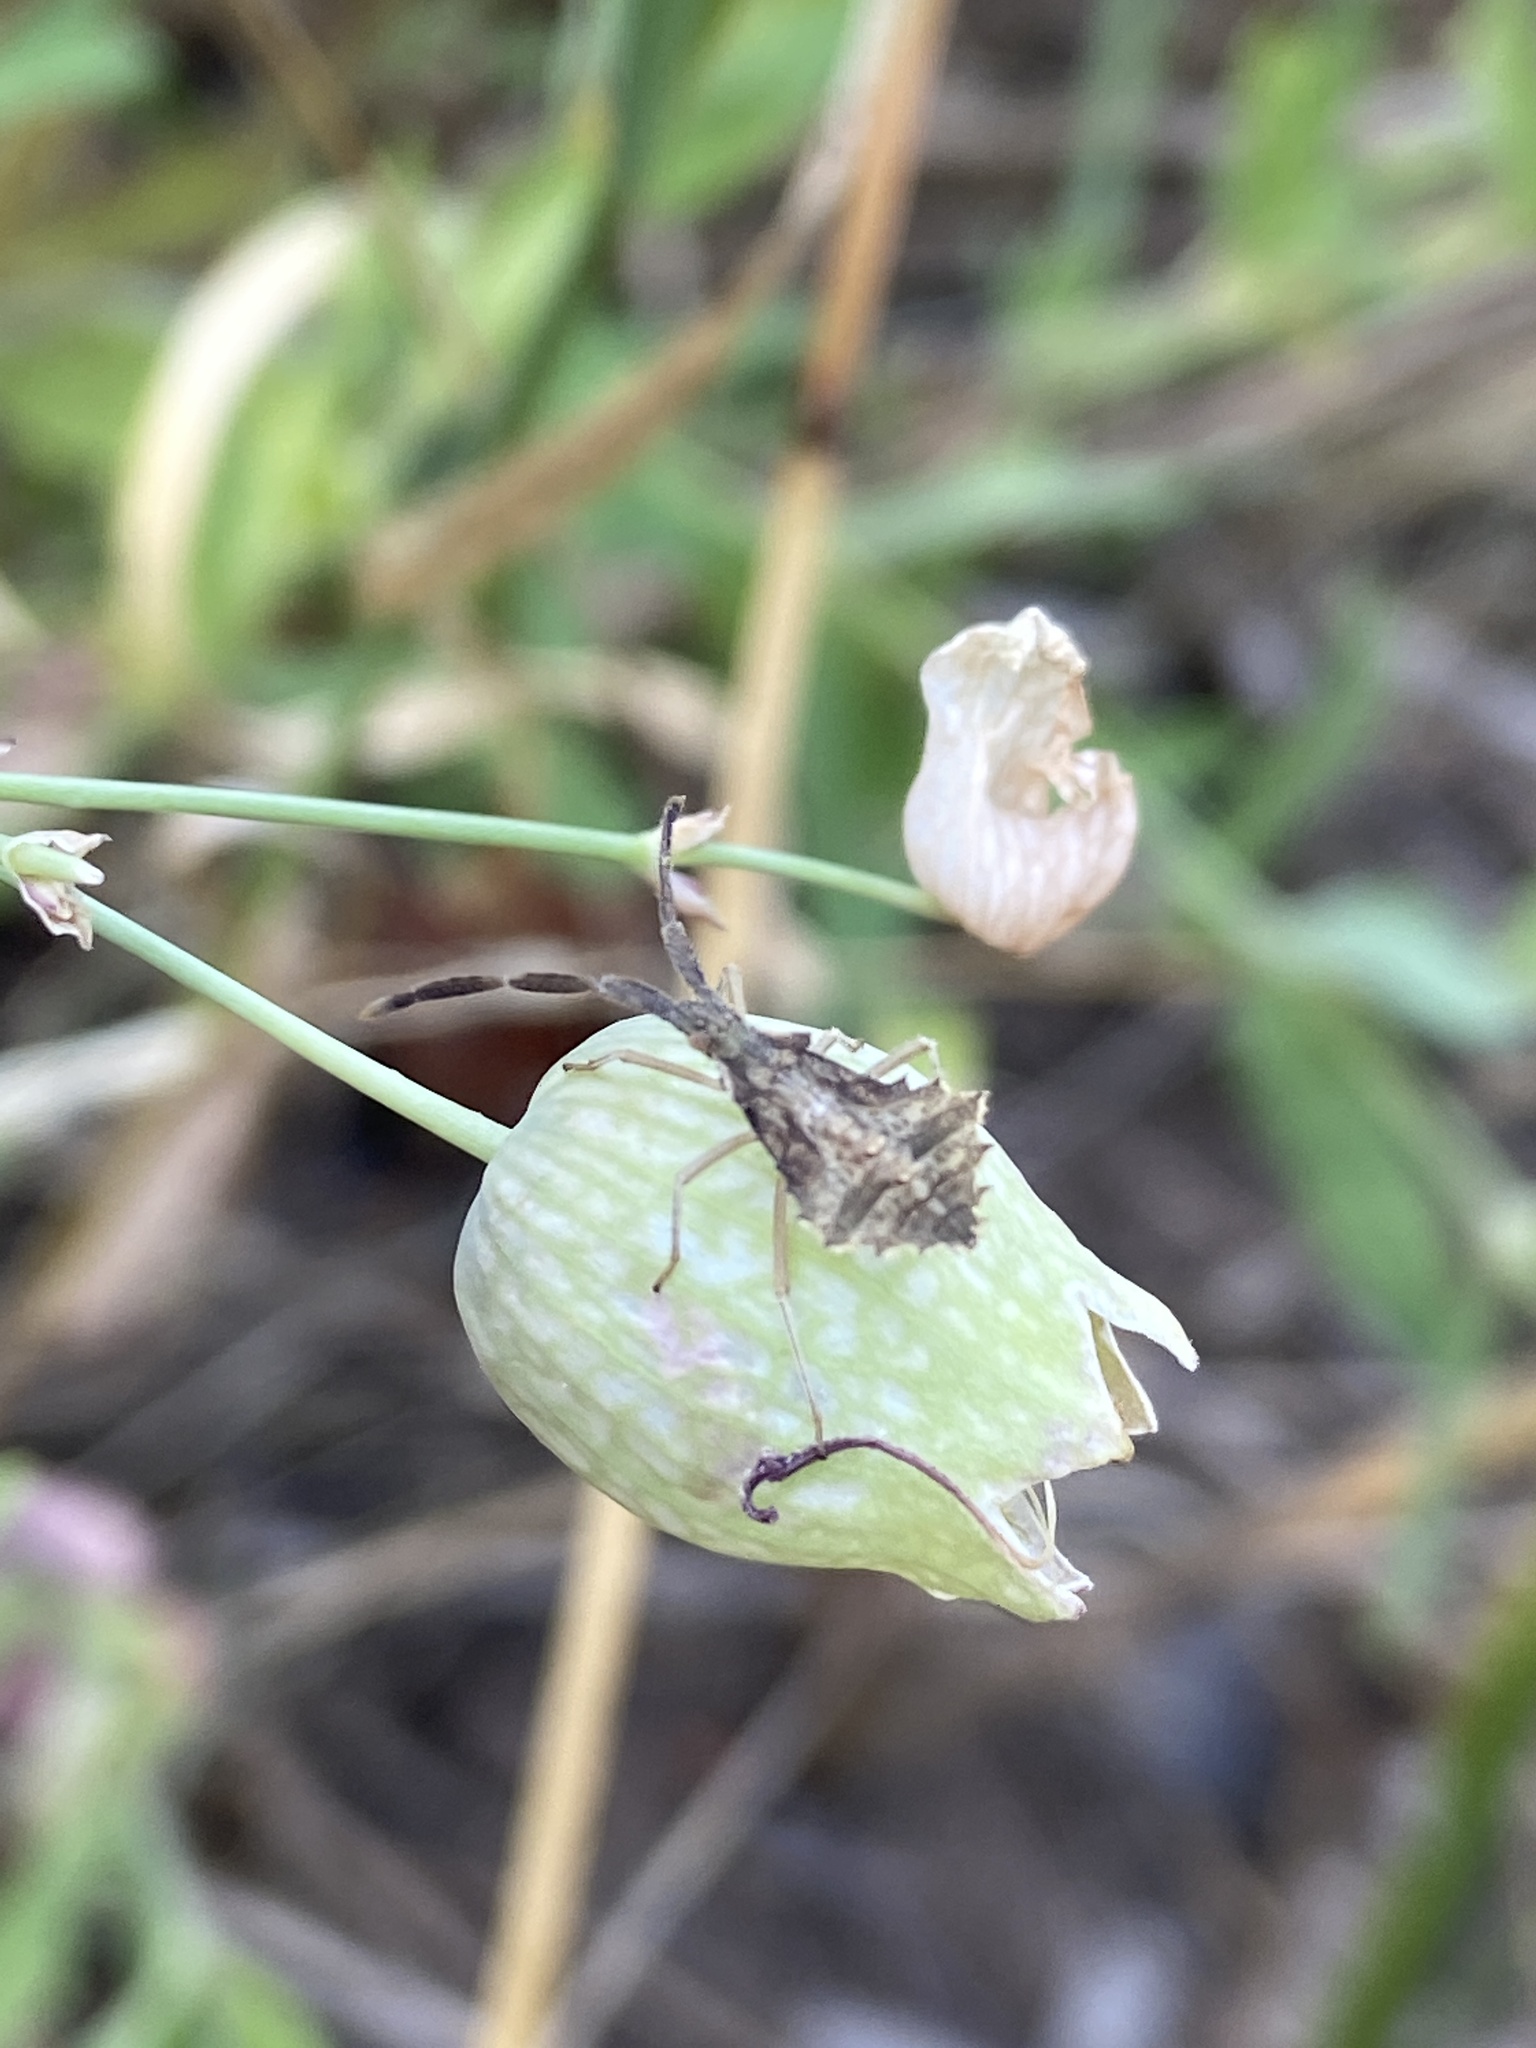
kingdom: Animalia
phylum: Arthropoda
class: Insecta
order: Hemiptera
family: Coreidae
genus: Syromastus
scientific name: Syromastus rhombeus
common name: Rhombic leatherbug
